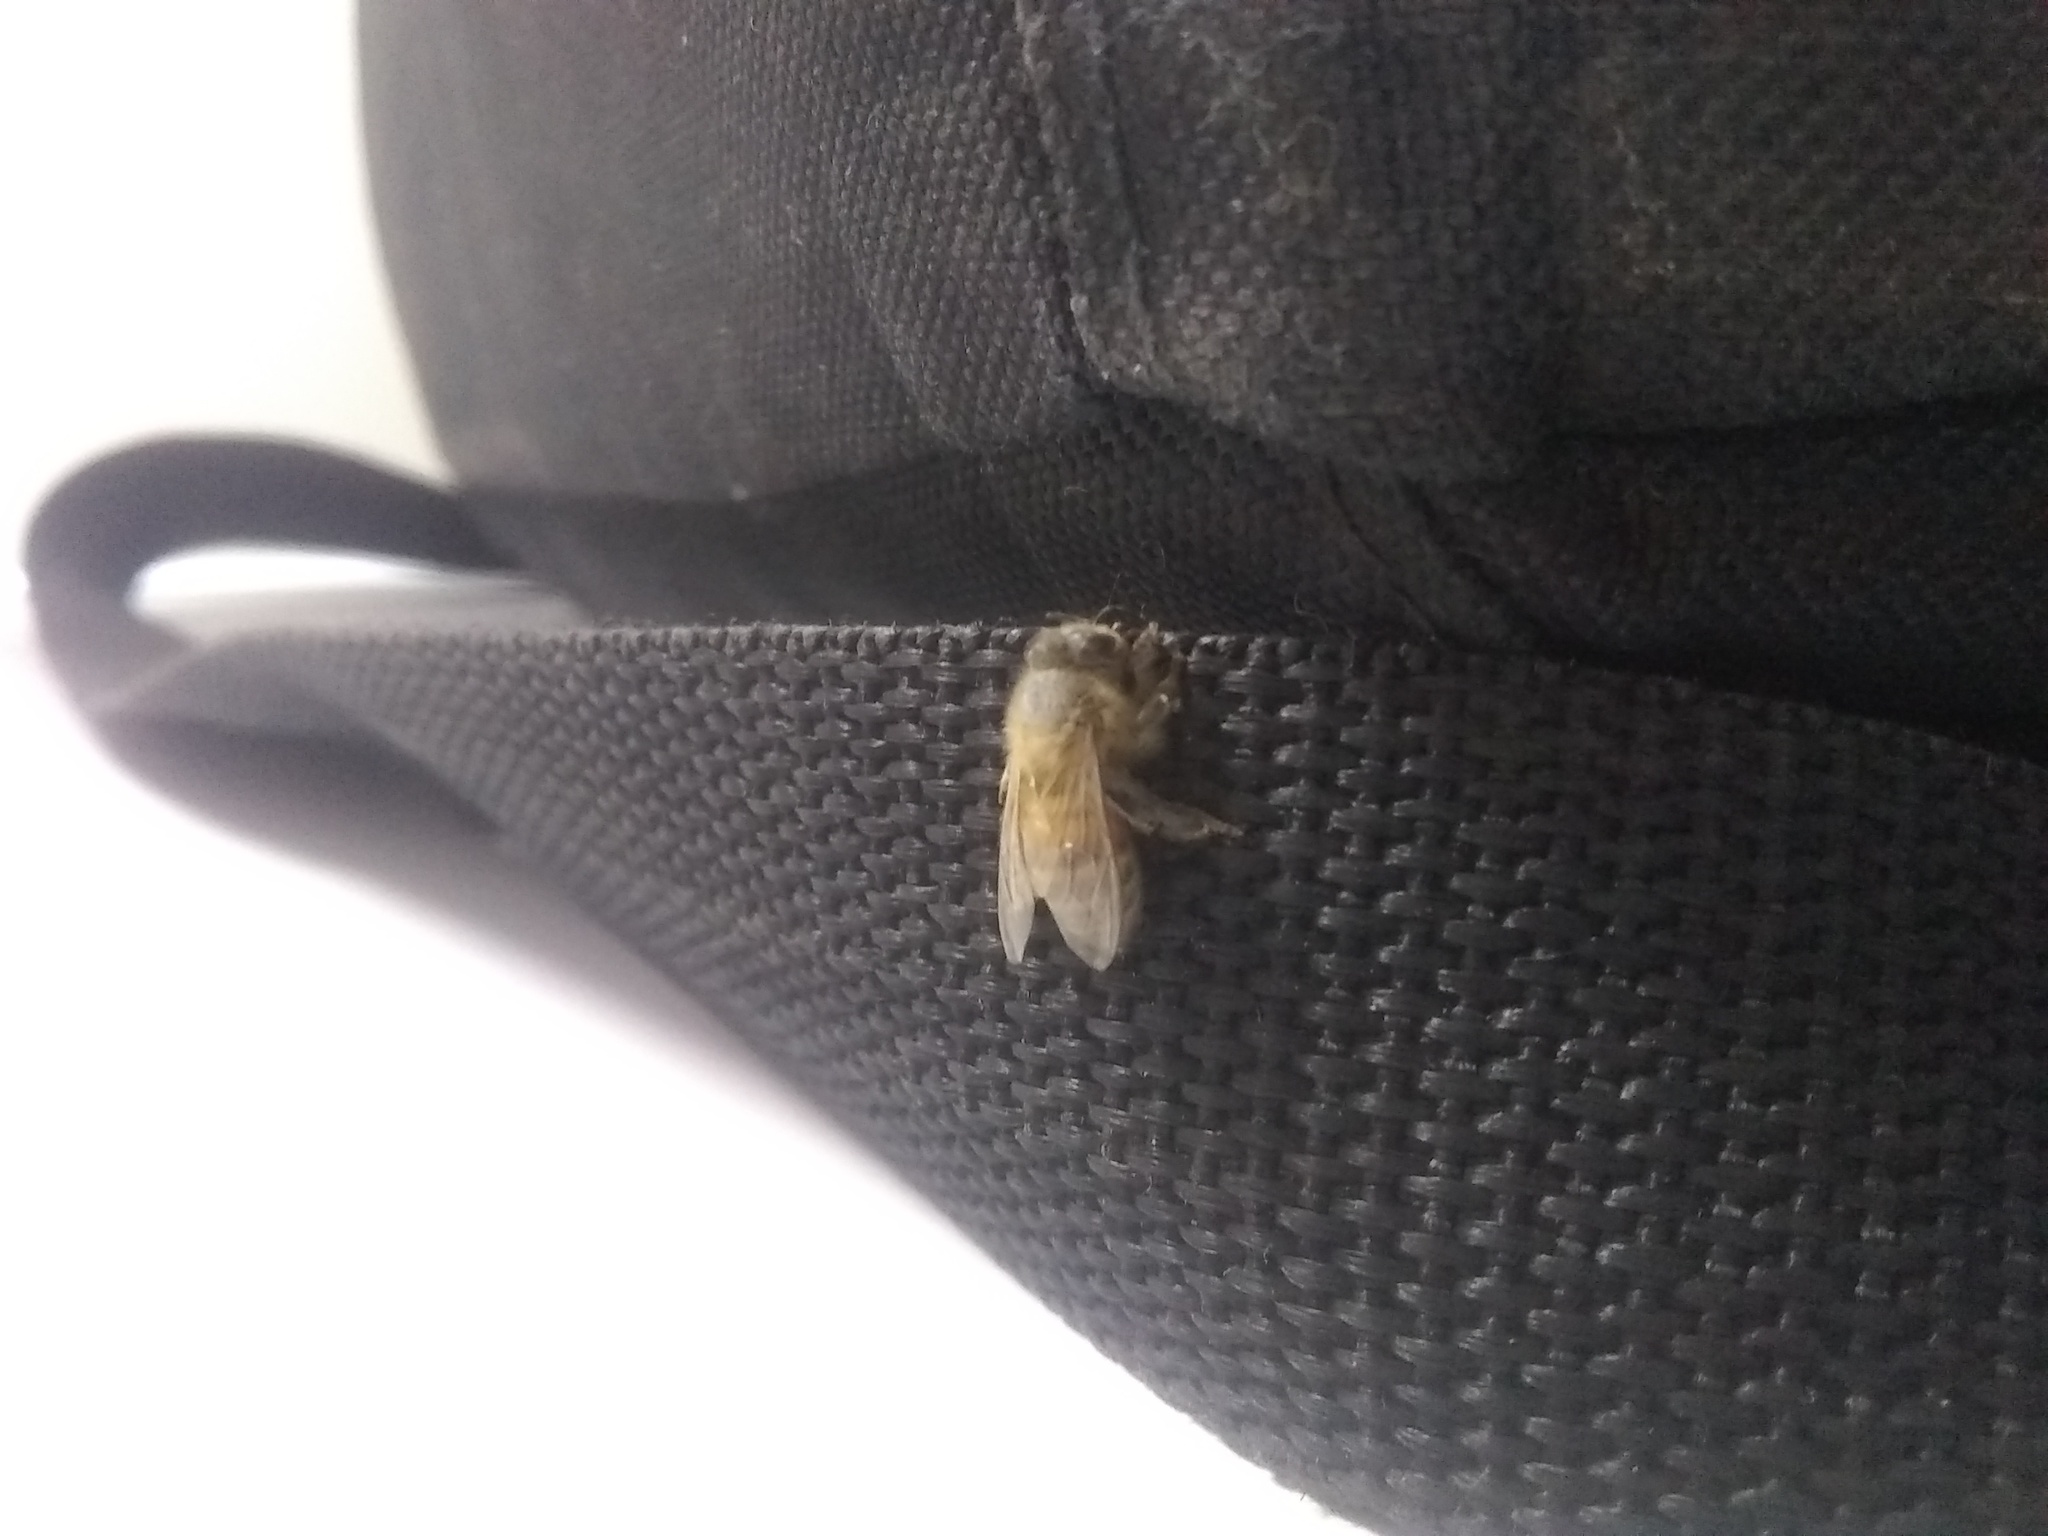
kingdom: Animalia
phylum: Arthropoda
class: Insecta
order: Hymenoptera
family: Apidae
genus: Apis
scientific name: Apis mellifera
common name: Honey bee
